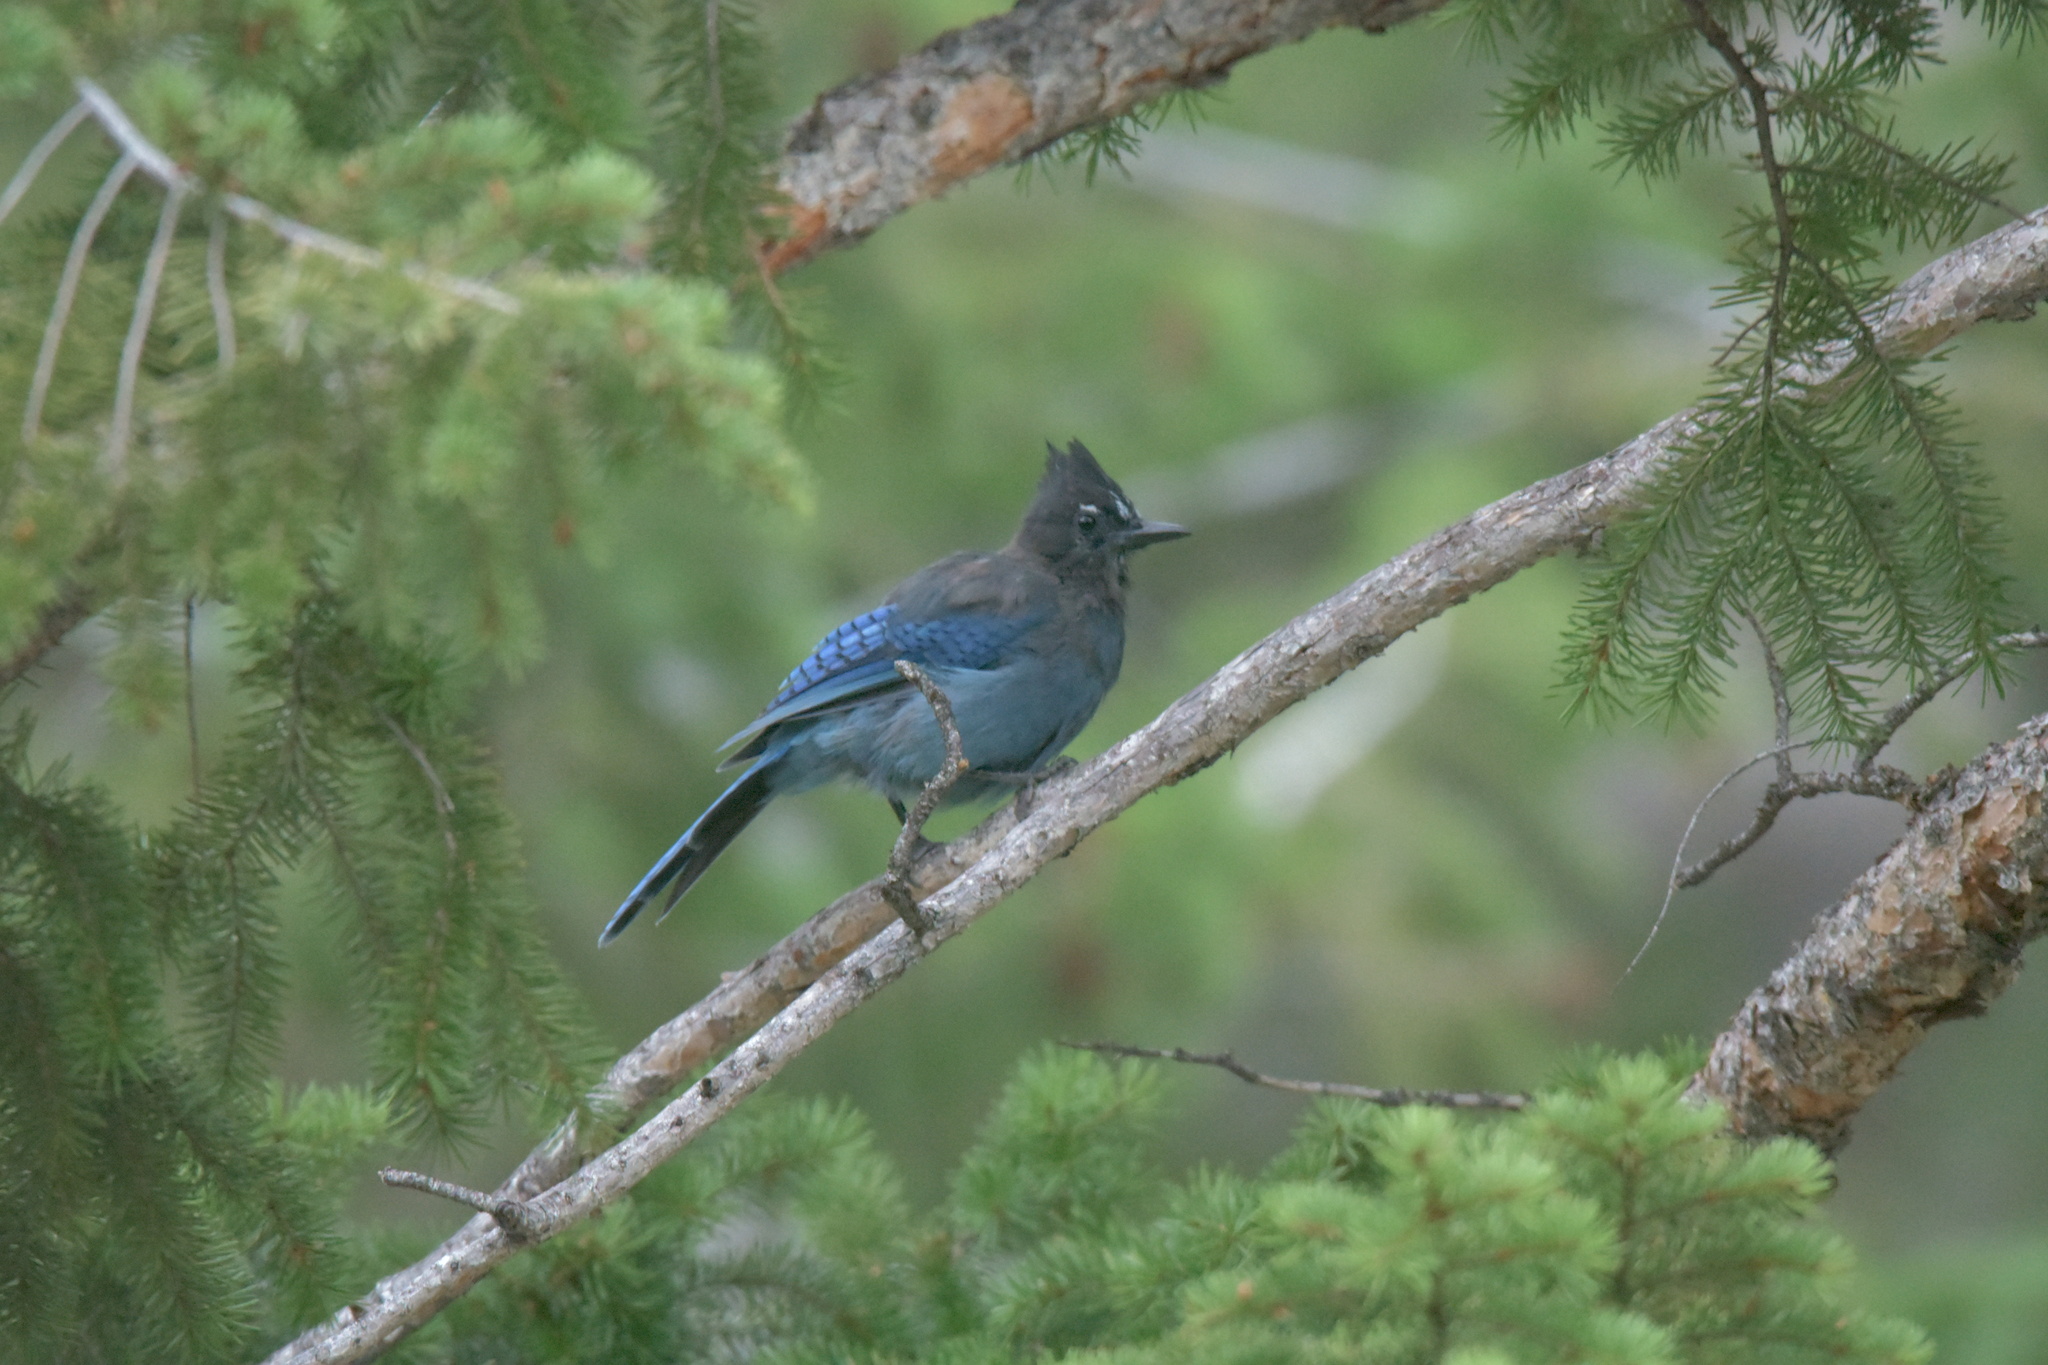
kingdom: Animalia
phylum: Chordata
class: Aves
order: Passeriformes
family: Corvidae
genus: Cyanocitta
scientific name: Cyanocitta stelleri
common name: Steller's jay
